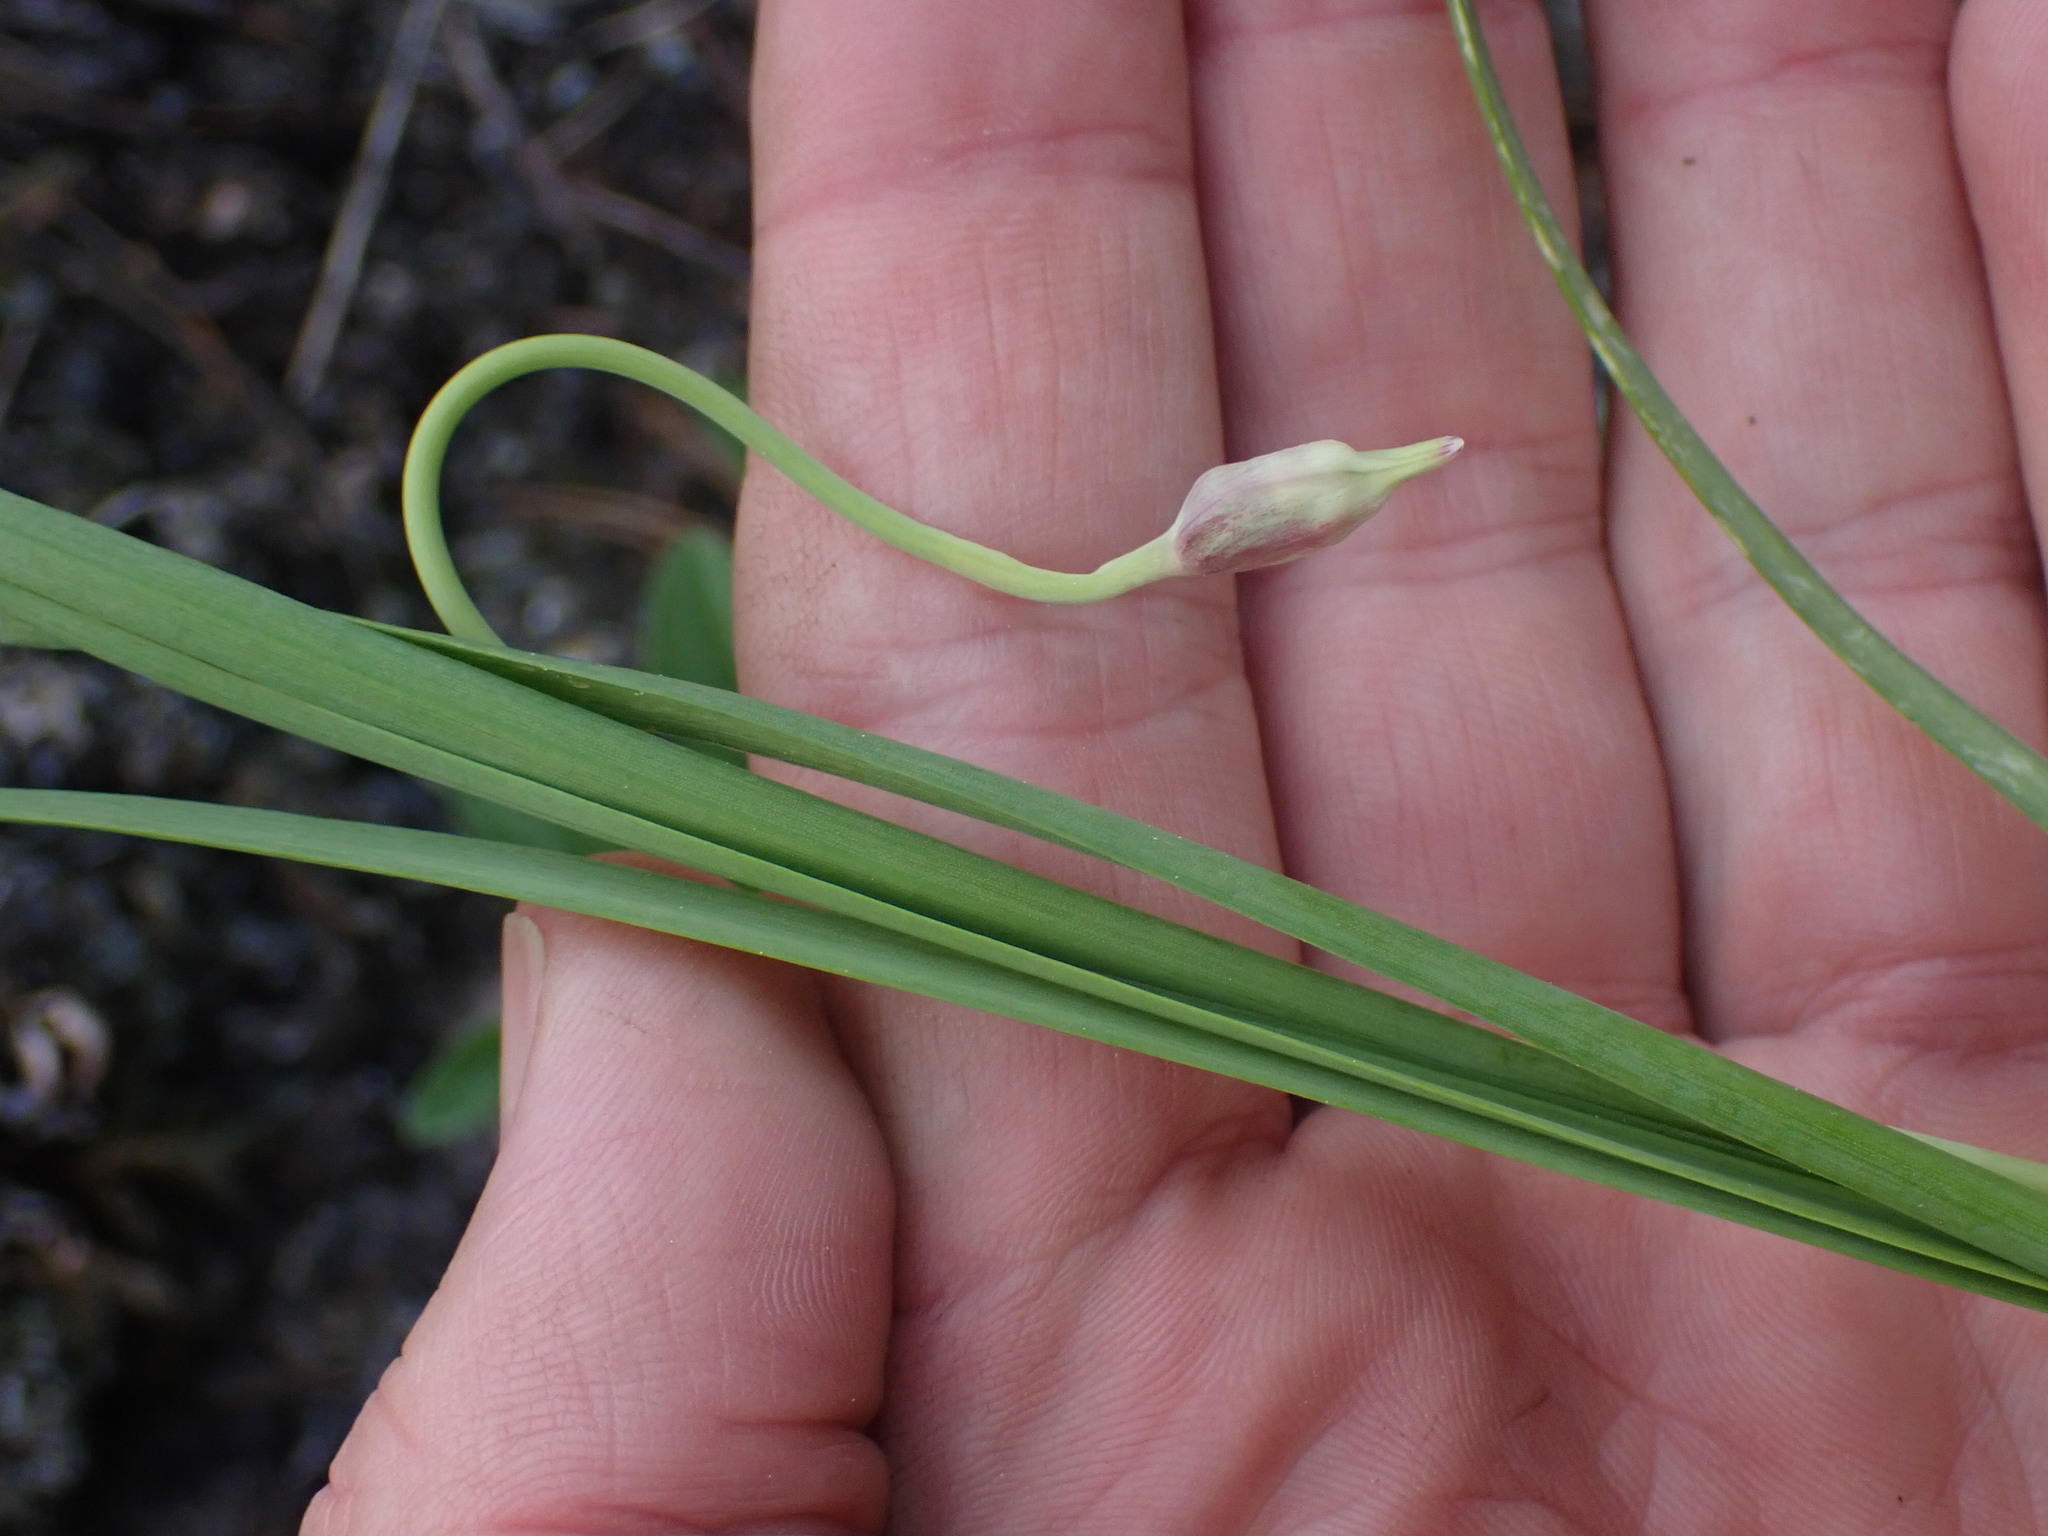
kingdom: Plantae
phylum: Tracheophyta
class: Liliopsida
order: Asparagales
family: Amaryllidaceae
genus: Allium
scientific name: Allium cernuum
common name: Nodding onion
